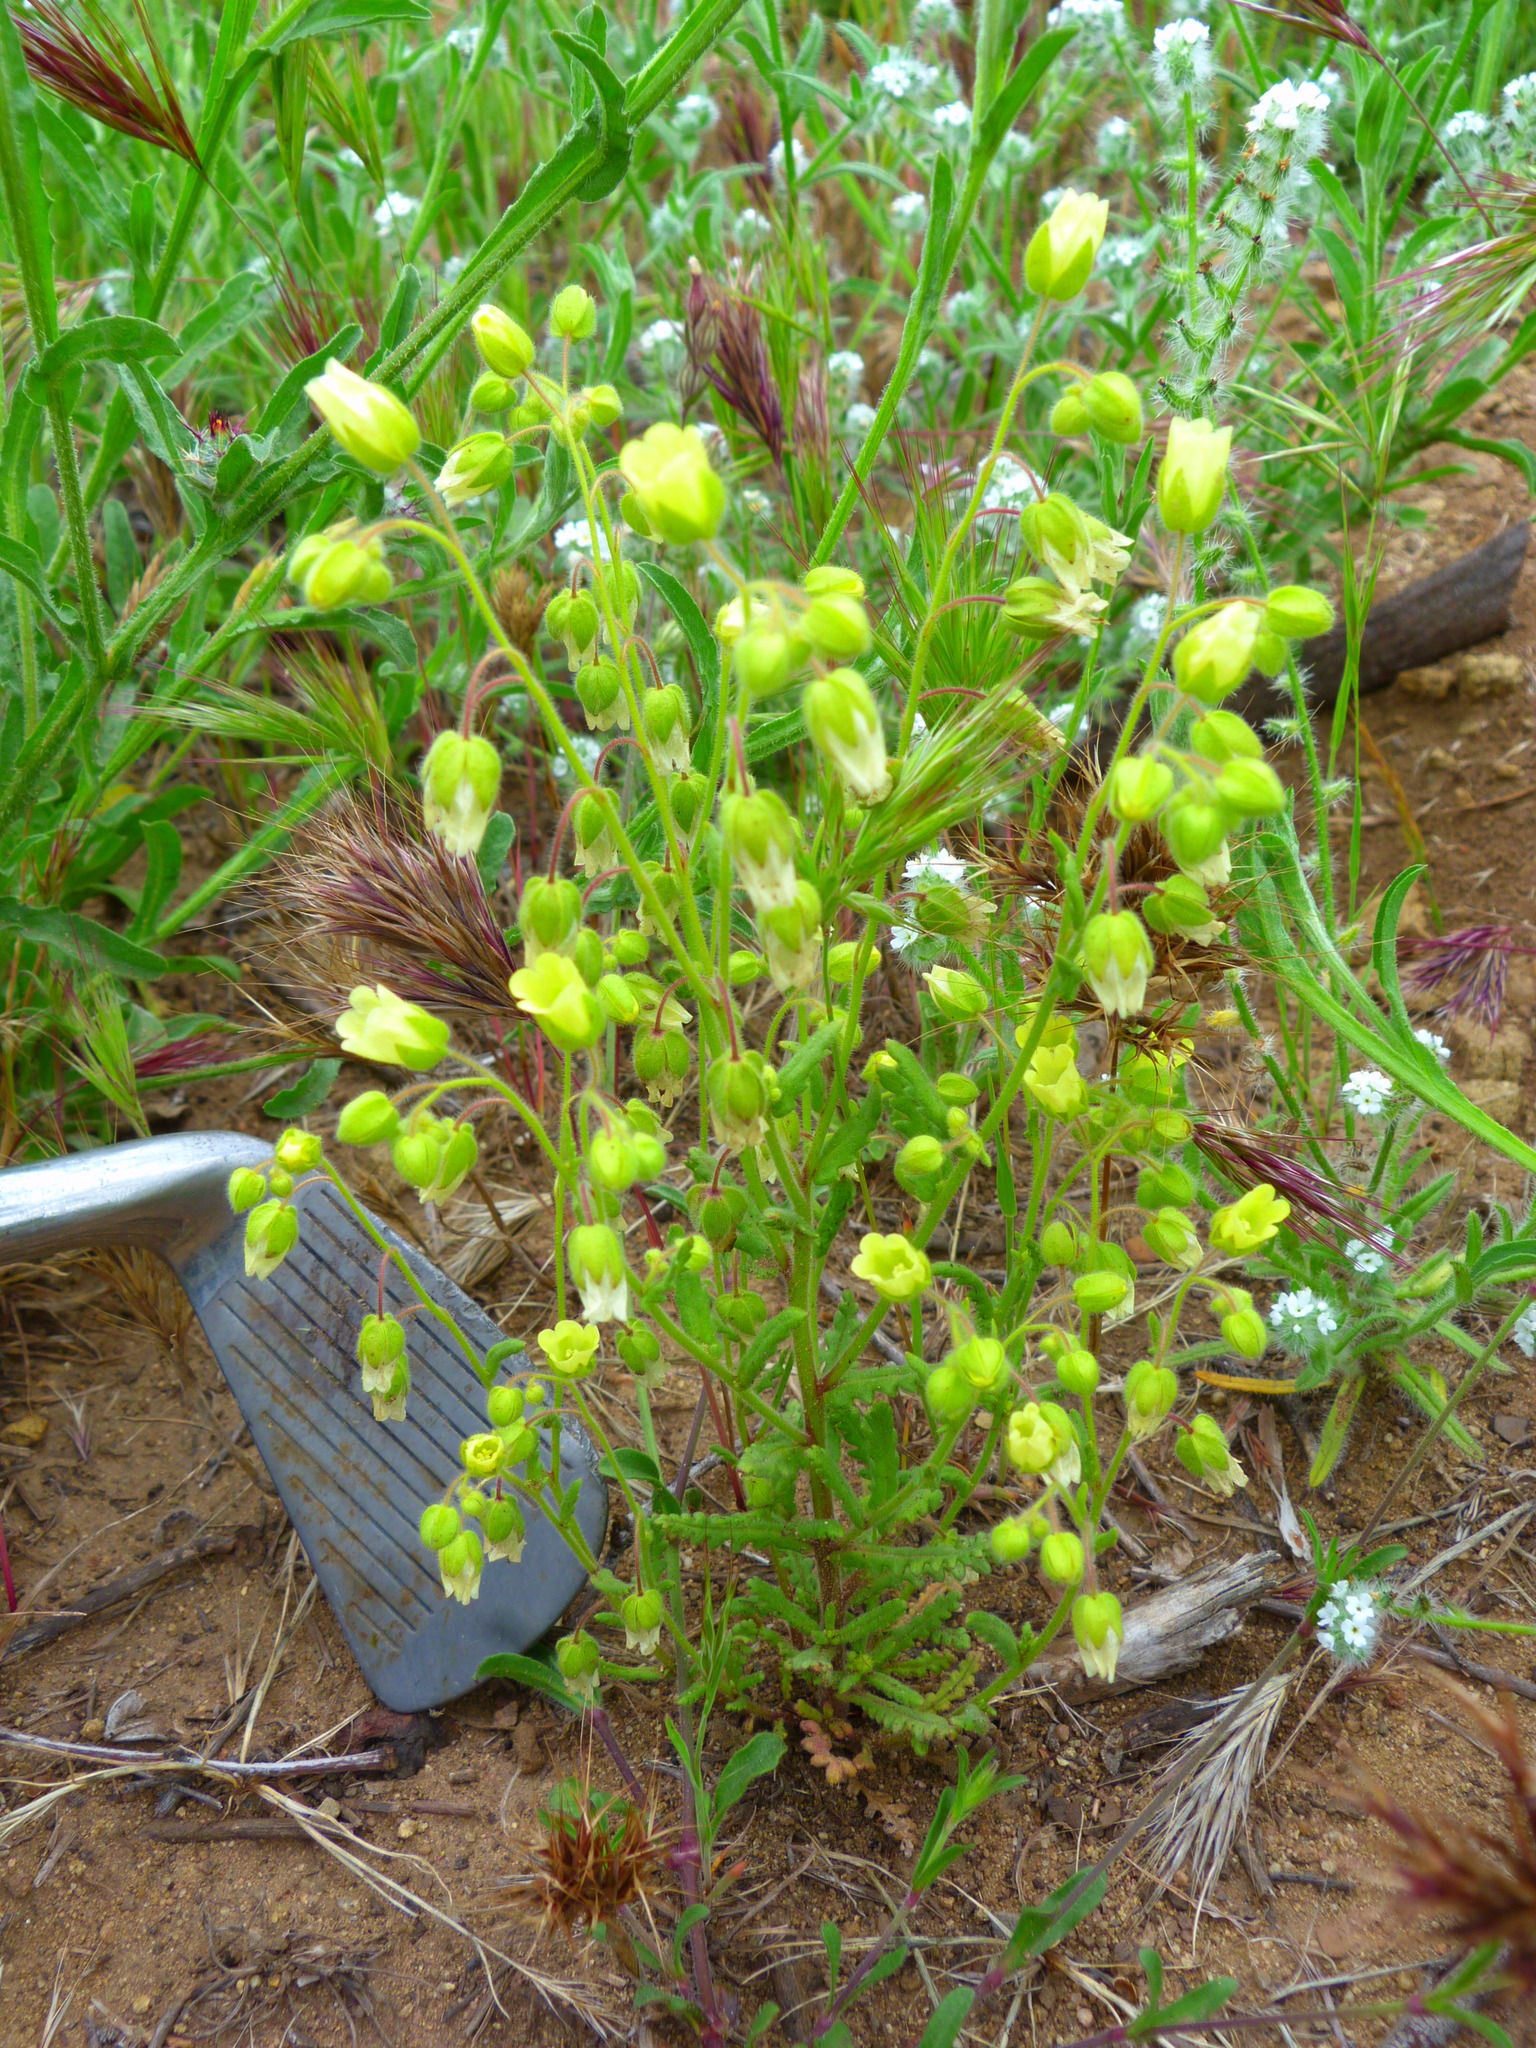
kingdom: Plantae
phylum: Tracheophyta
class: Magnoliopsida
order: Boraginales
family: Hydrophyllaceae
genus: Emmenanthe
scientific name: Emmenanthe penduliflora
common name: Whispering-bells
